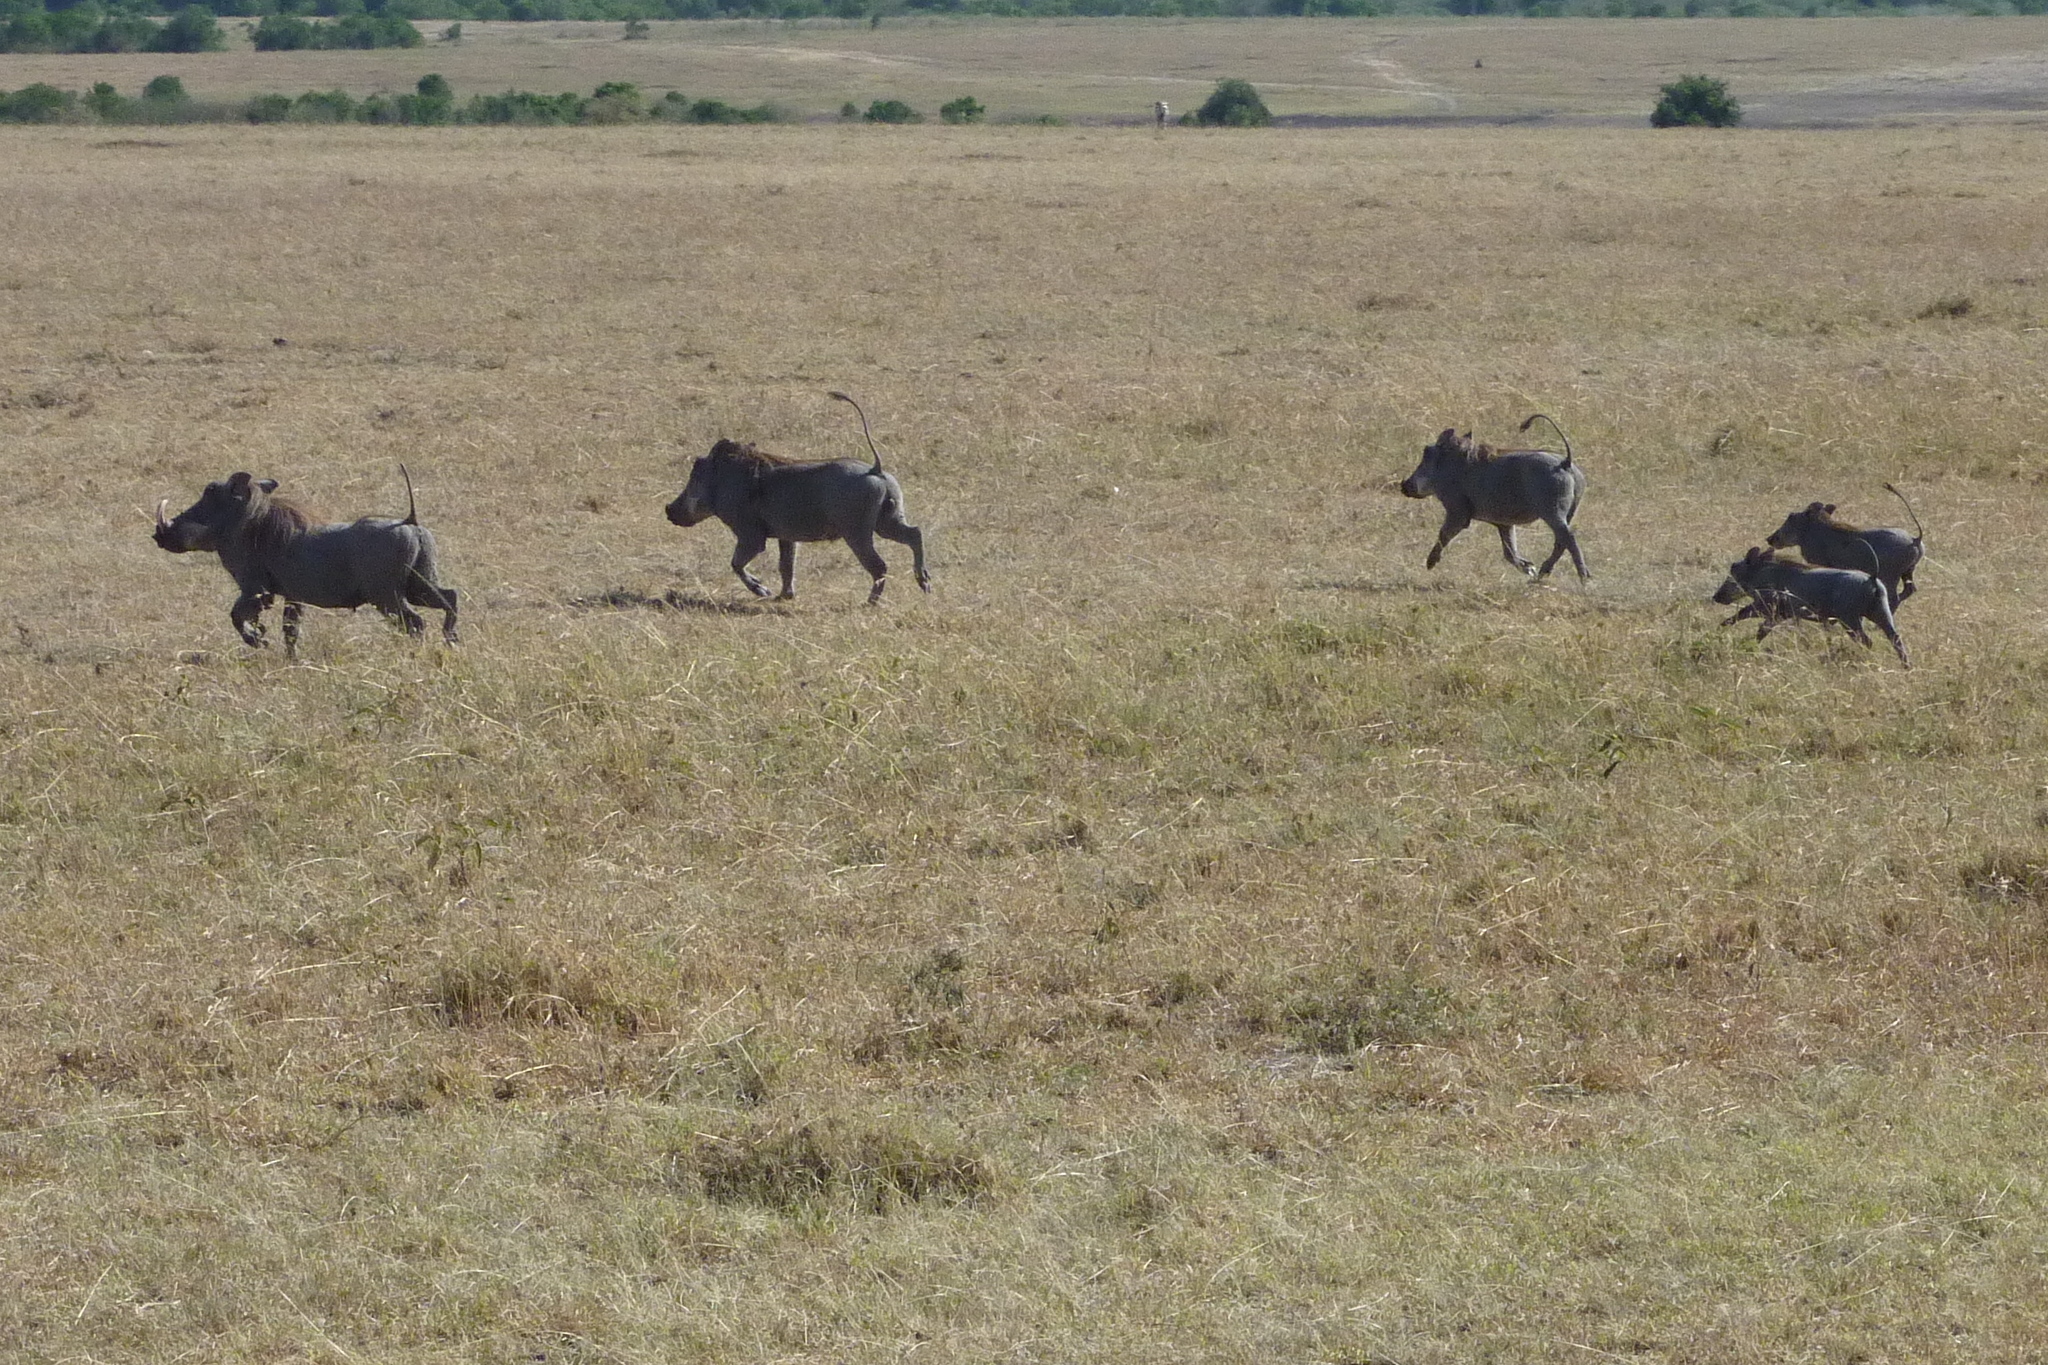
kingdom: Animalia
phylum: Chordata
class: Mammalia
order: Artiodactyla
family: Suidae
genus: Phacochoerus
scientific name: Phacochoerus africanus
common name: Common warthog
